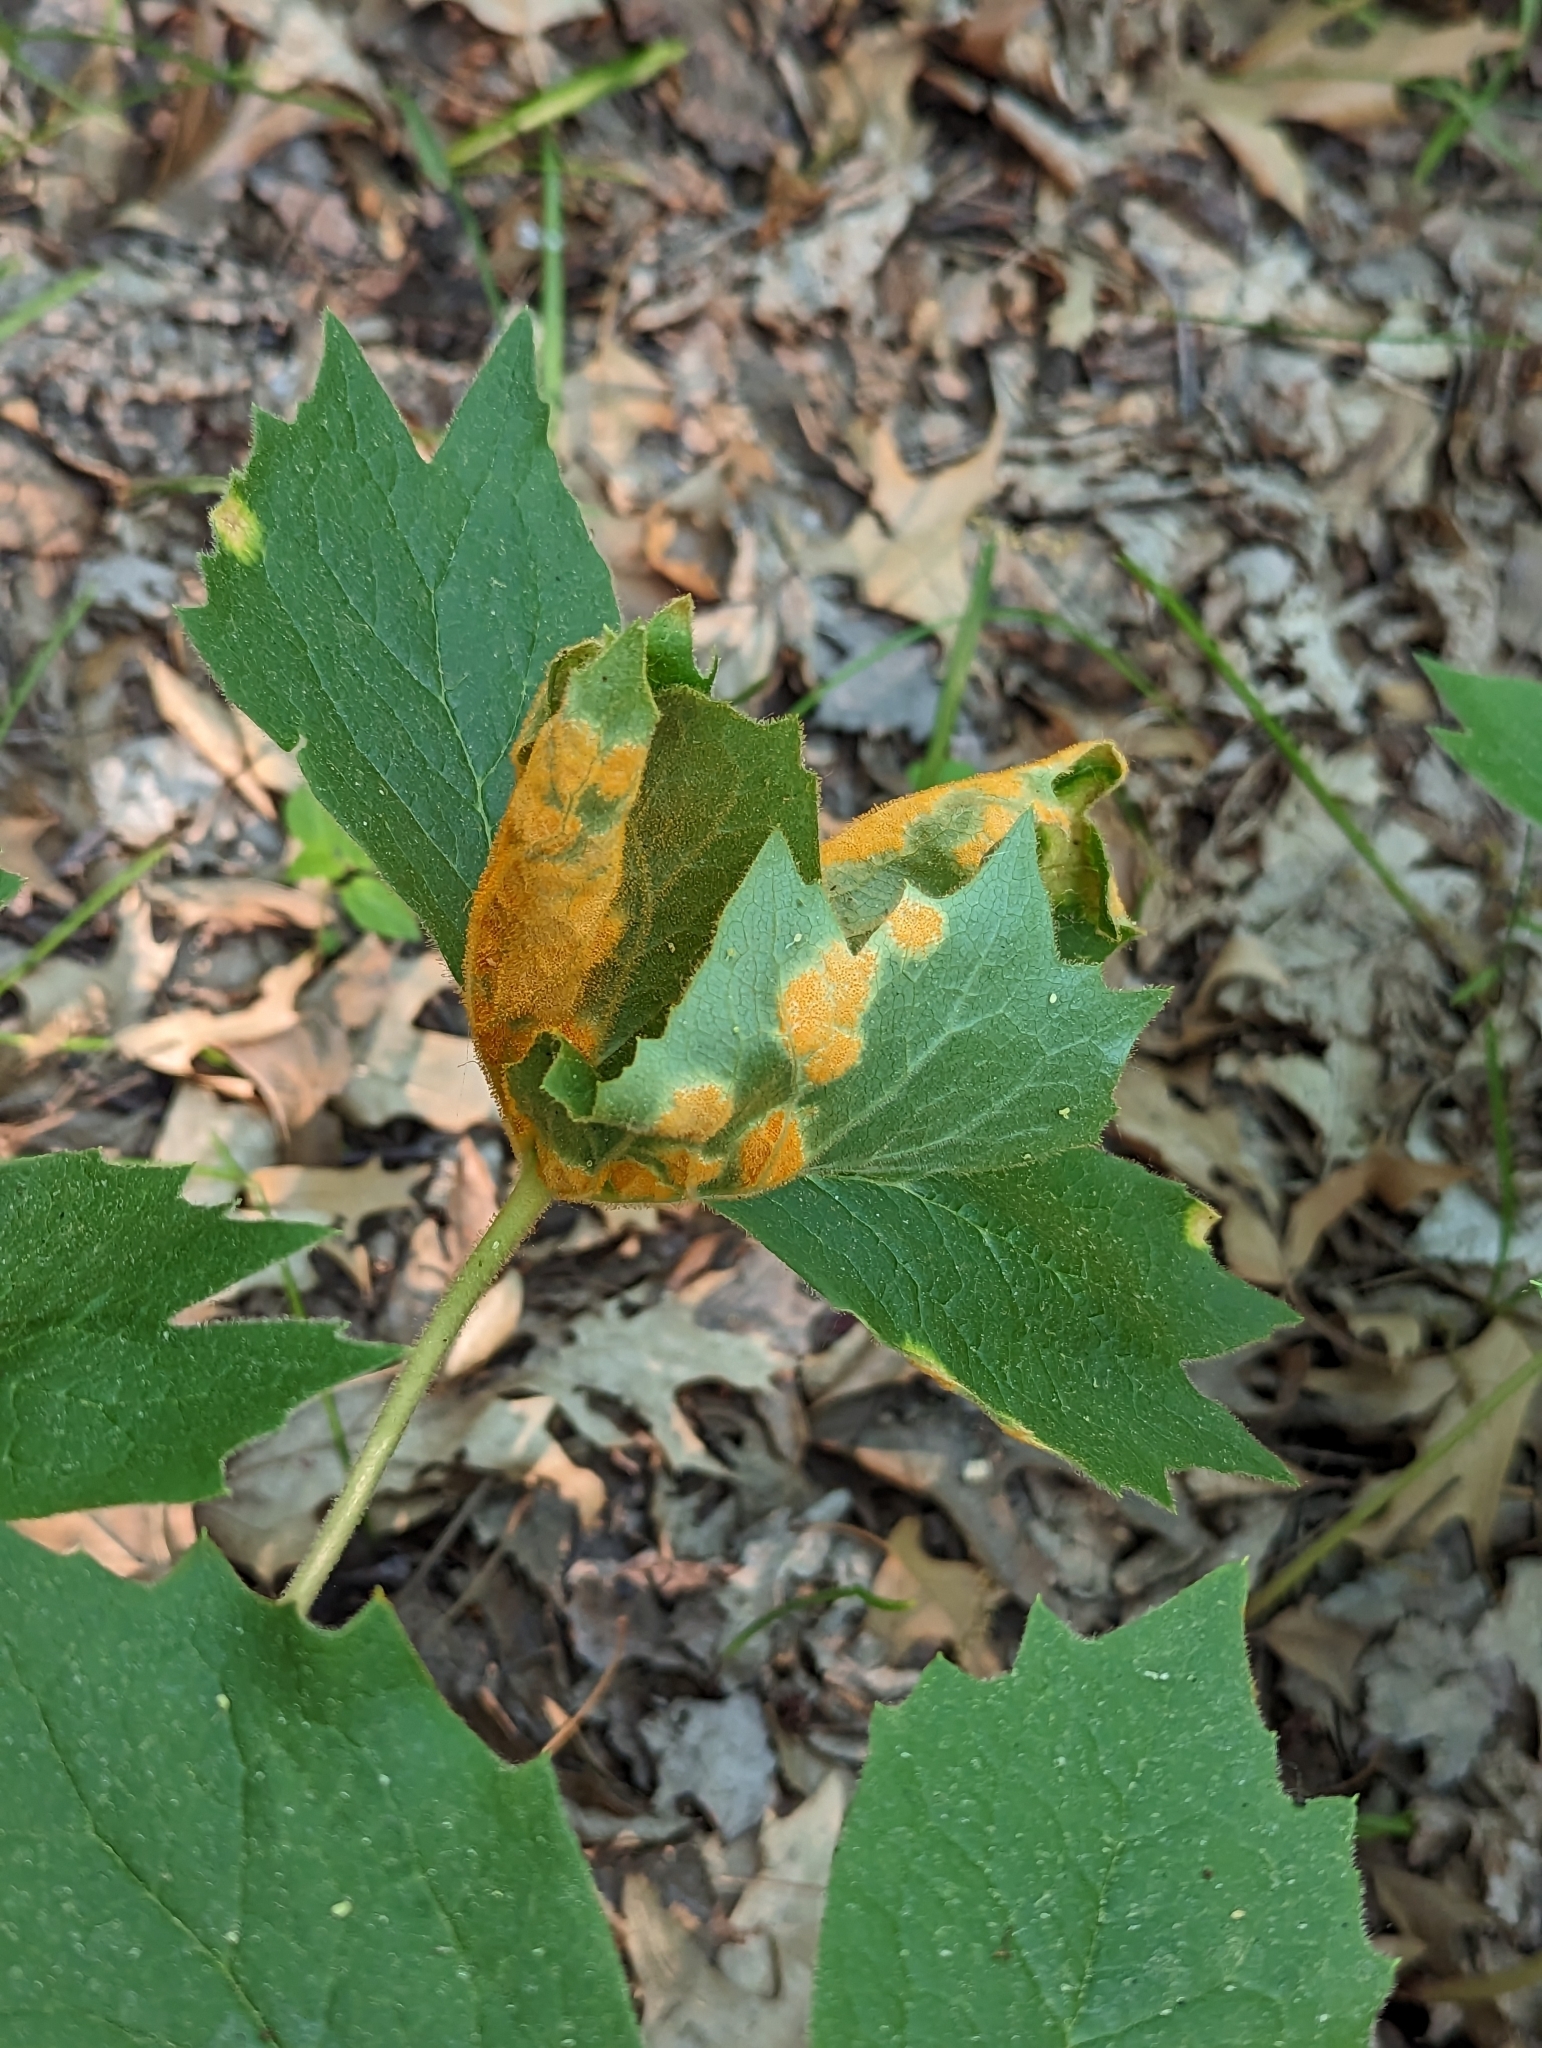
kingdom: Fungi
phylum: Basidiomycota
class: Pucciniomycetes
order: Pucciniales
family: Pucciniaceae
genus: Puccinia
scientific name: Puccinia podophylli
